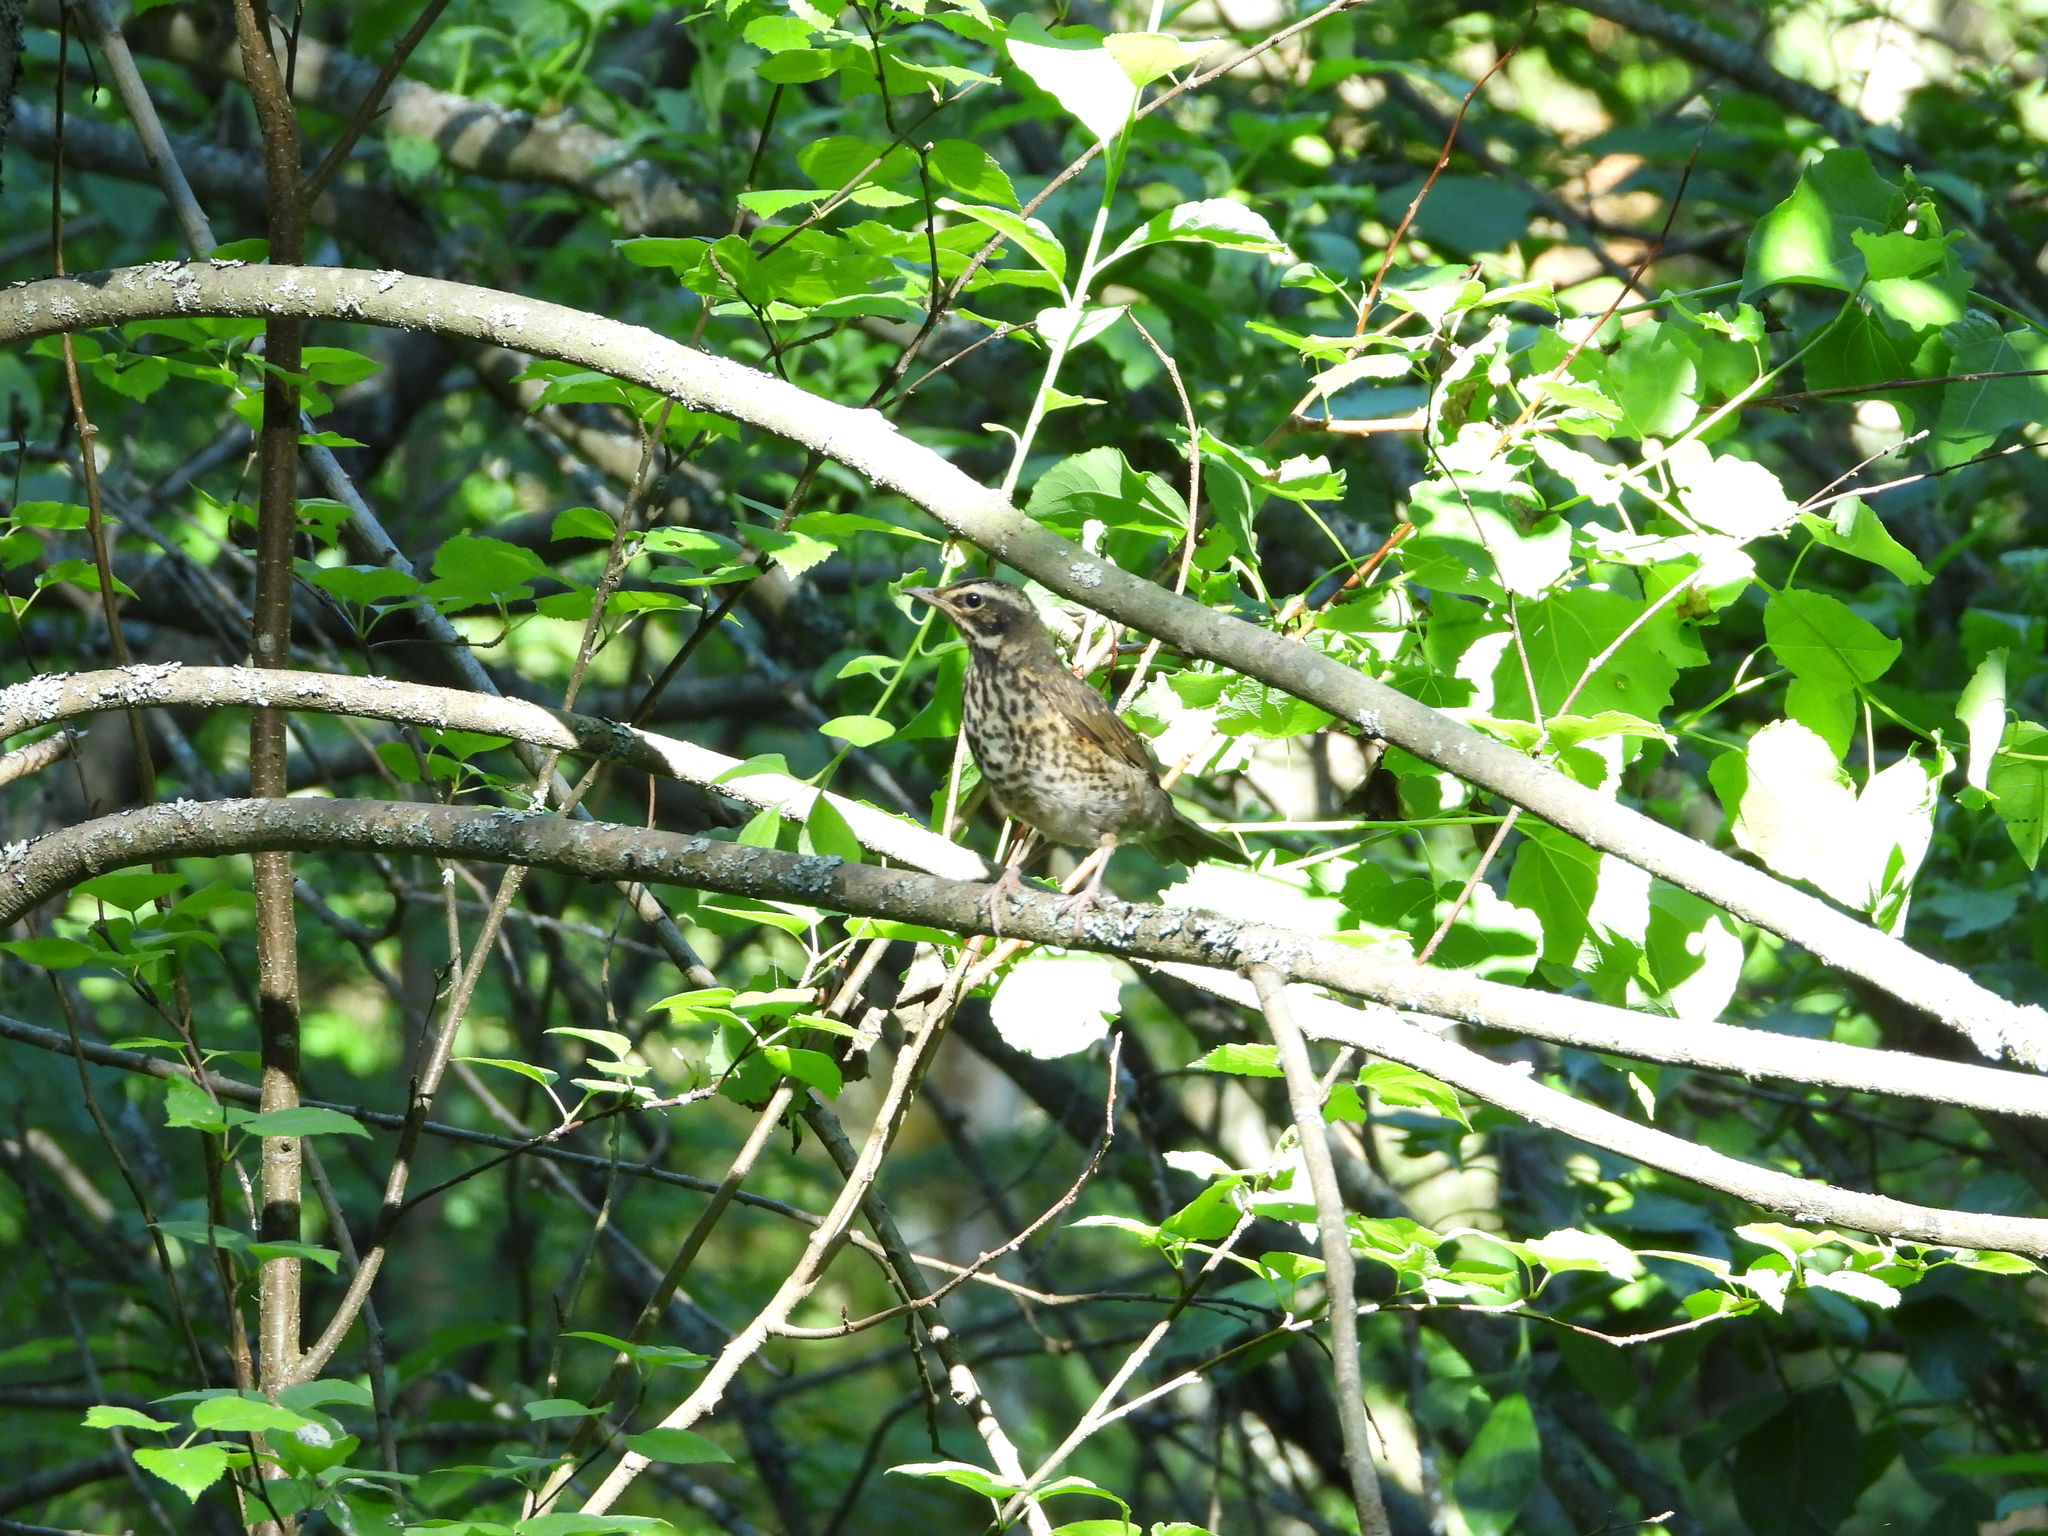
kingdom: Animalia
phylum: Chordata
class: Aves
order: Passeriformes
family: Turdidae
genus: Turdus
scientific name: Turdus iliacus
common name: Redwing
